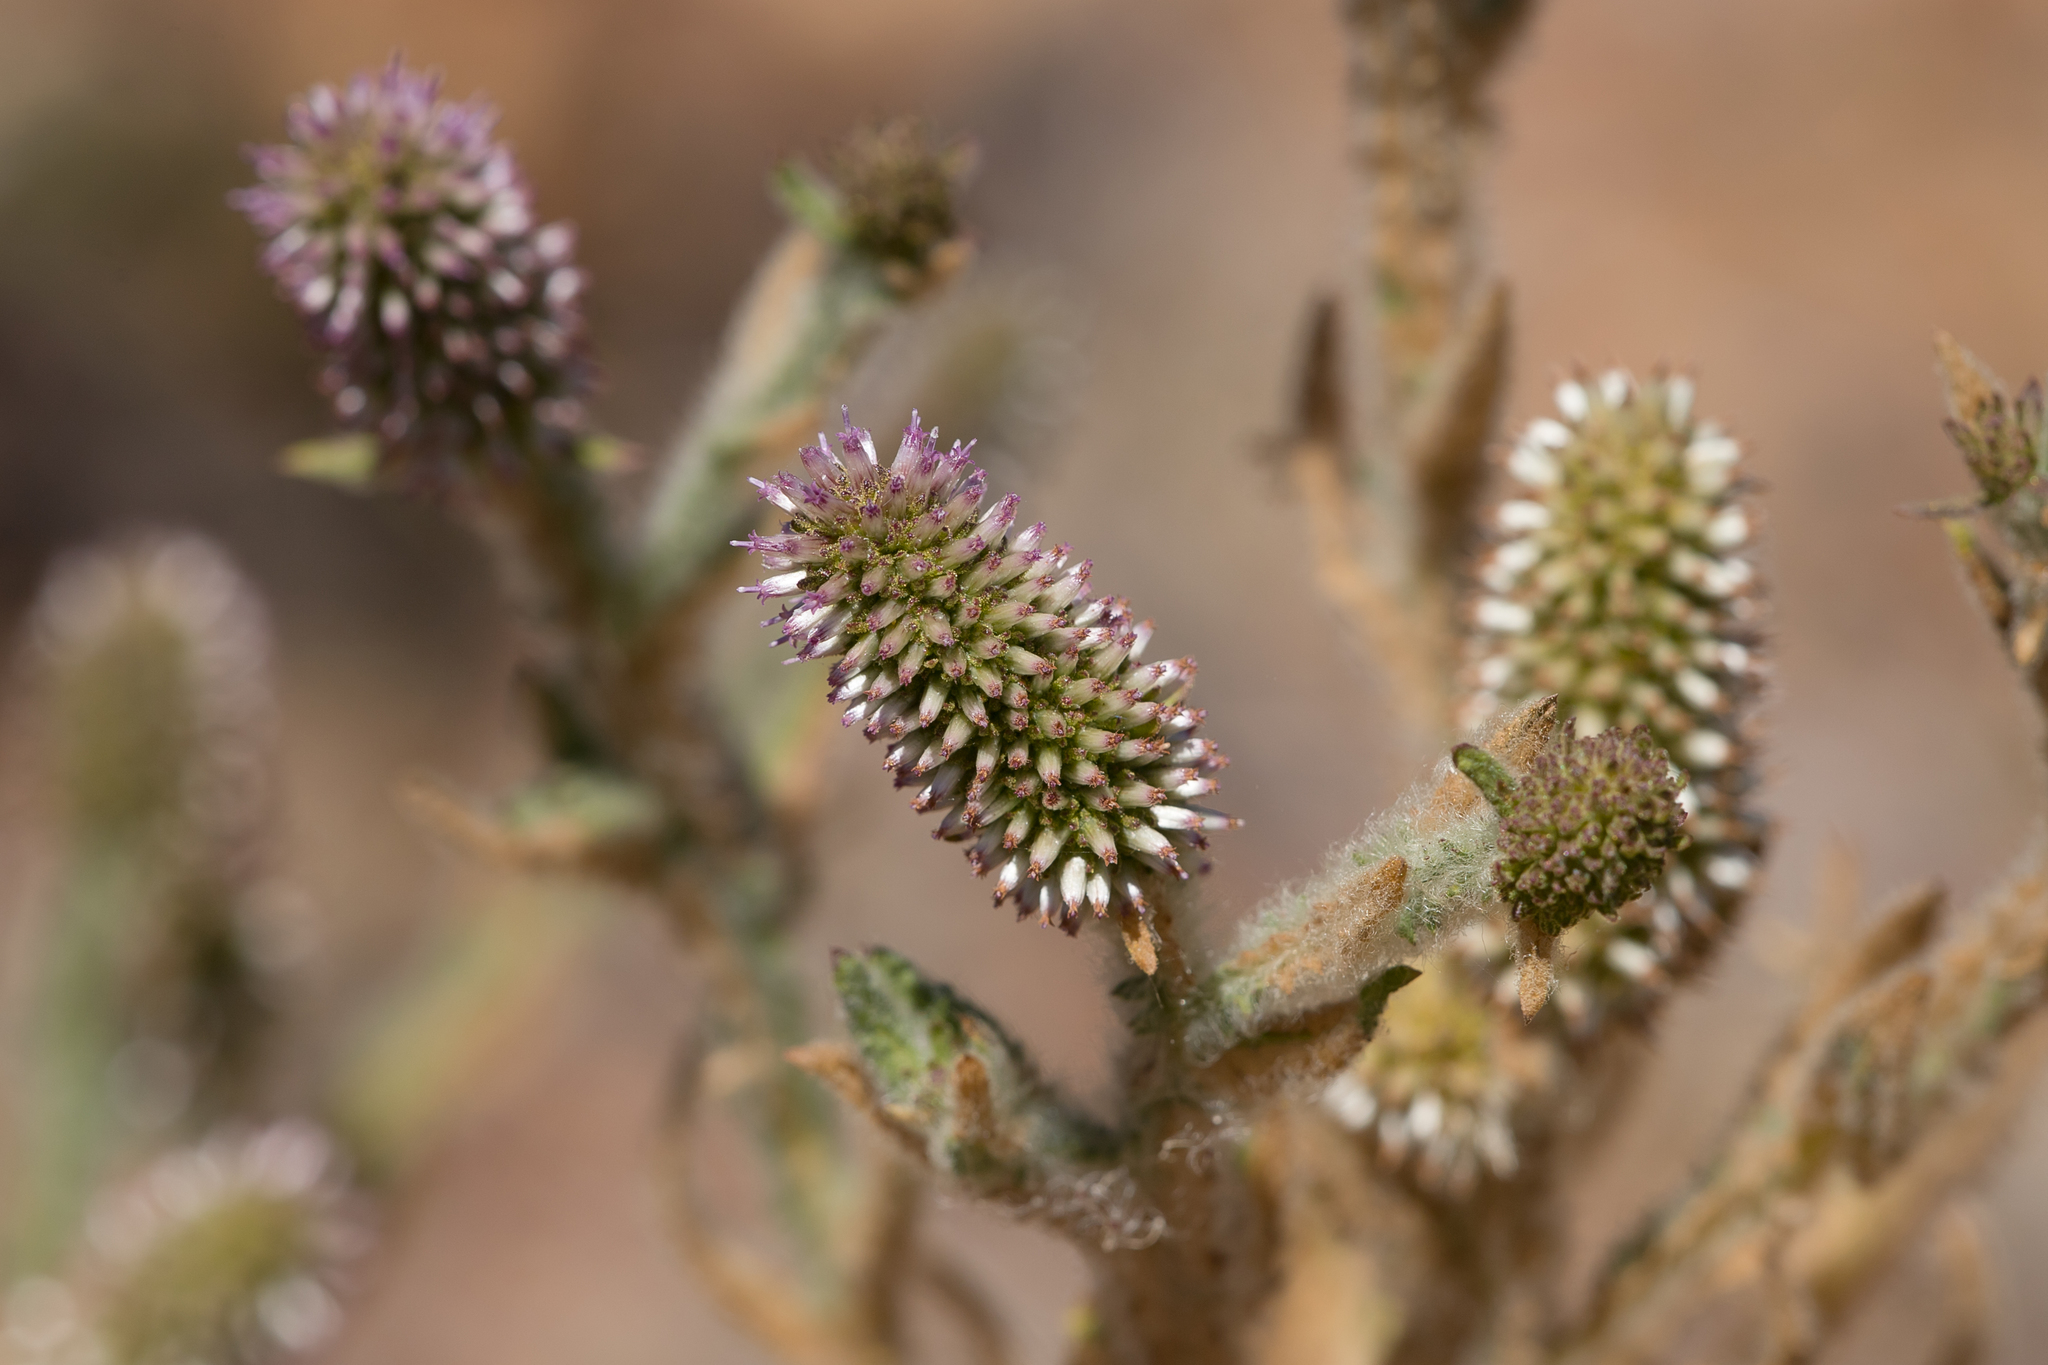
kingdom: Plantae
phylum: Tracheophyta
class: Magnoliopsida
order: Asterales
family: Asteraceae
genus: Pterocaulon
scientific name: Pterocaulon serrulatum
